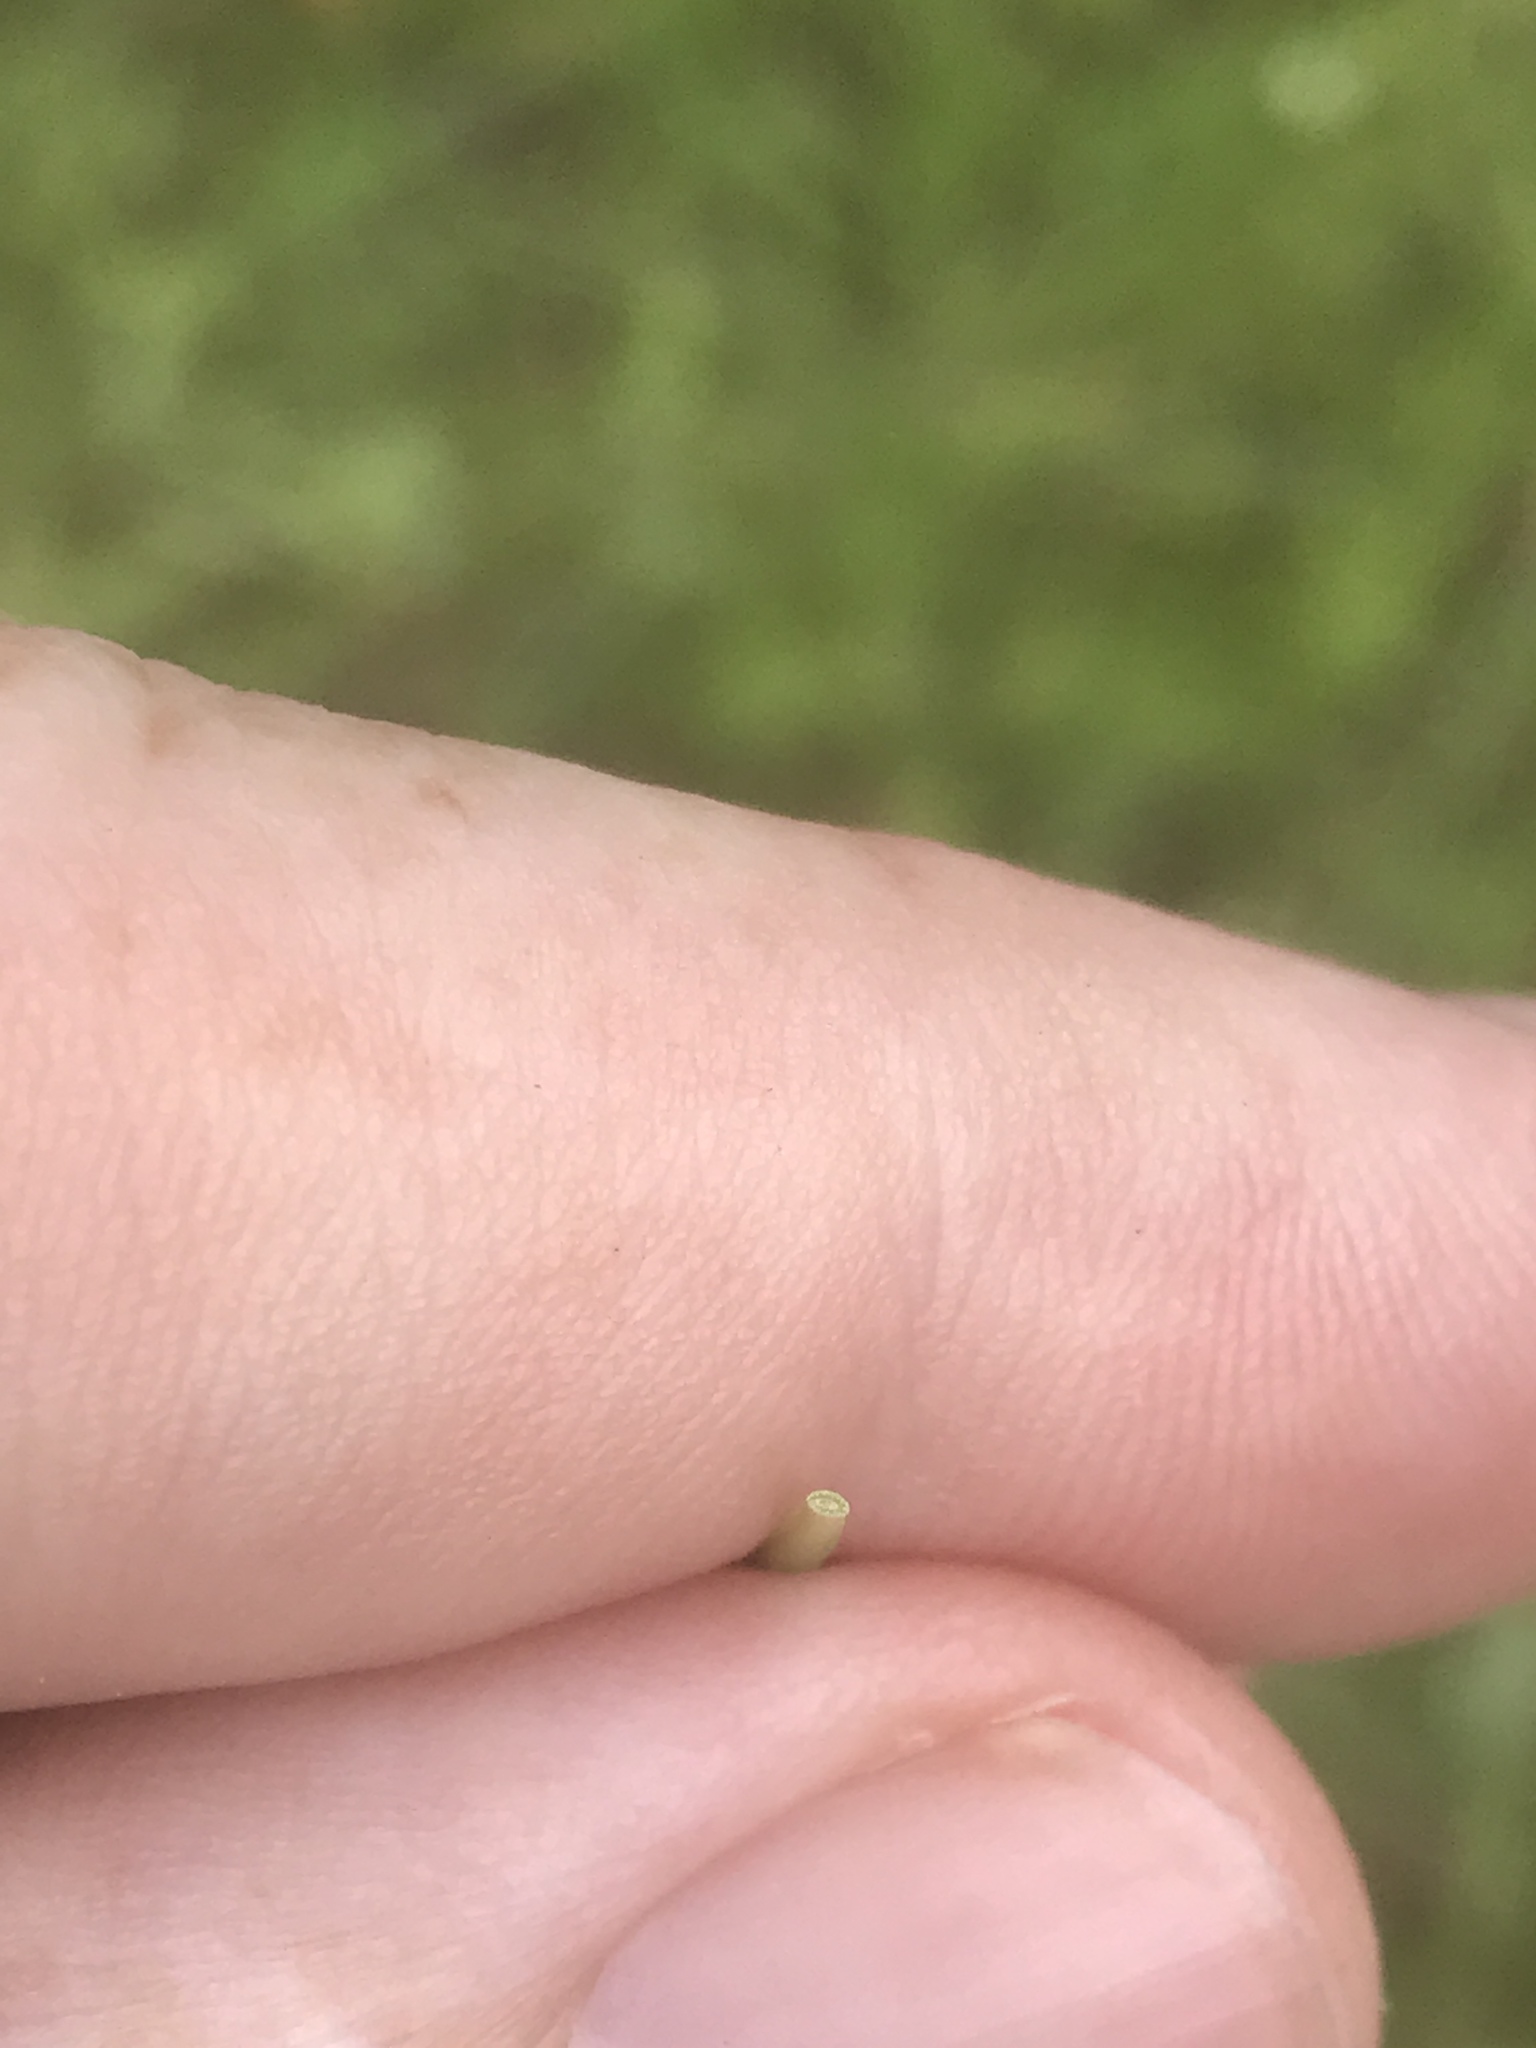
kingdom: Plantae
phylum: Tracheophyta
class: Liliopsida
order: Poales
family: Poaceae
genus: Poa
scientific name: Poa compressa
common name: Canada bluegrass
